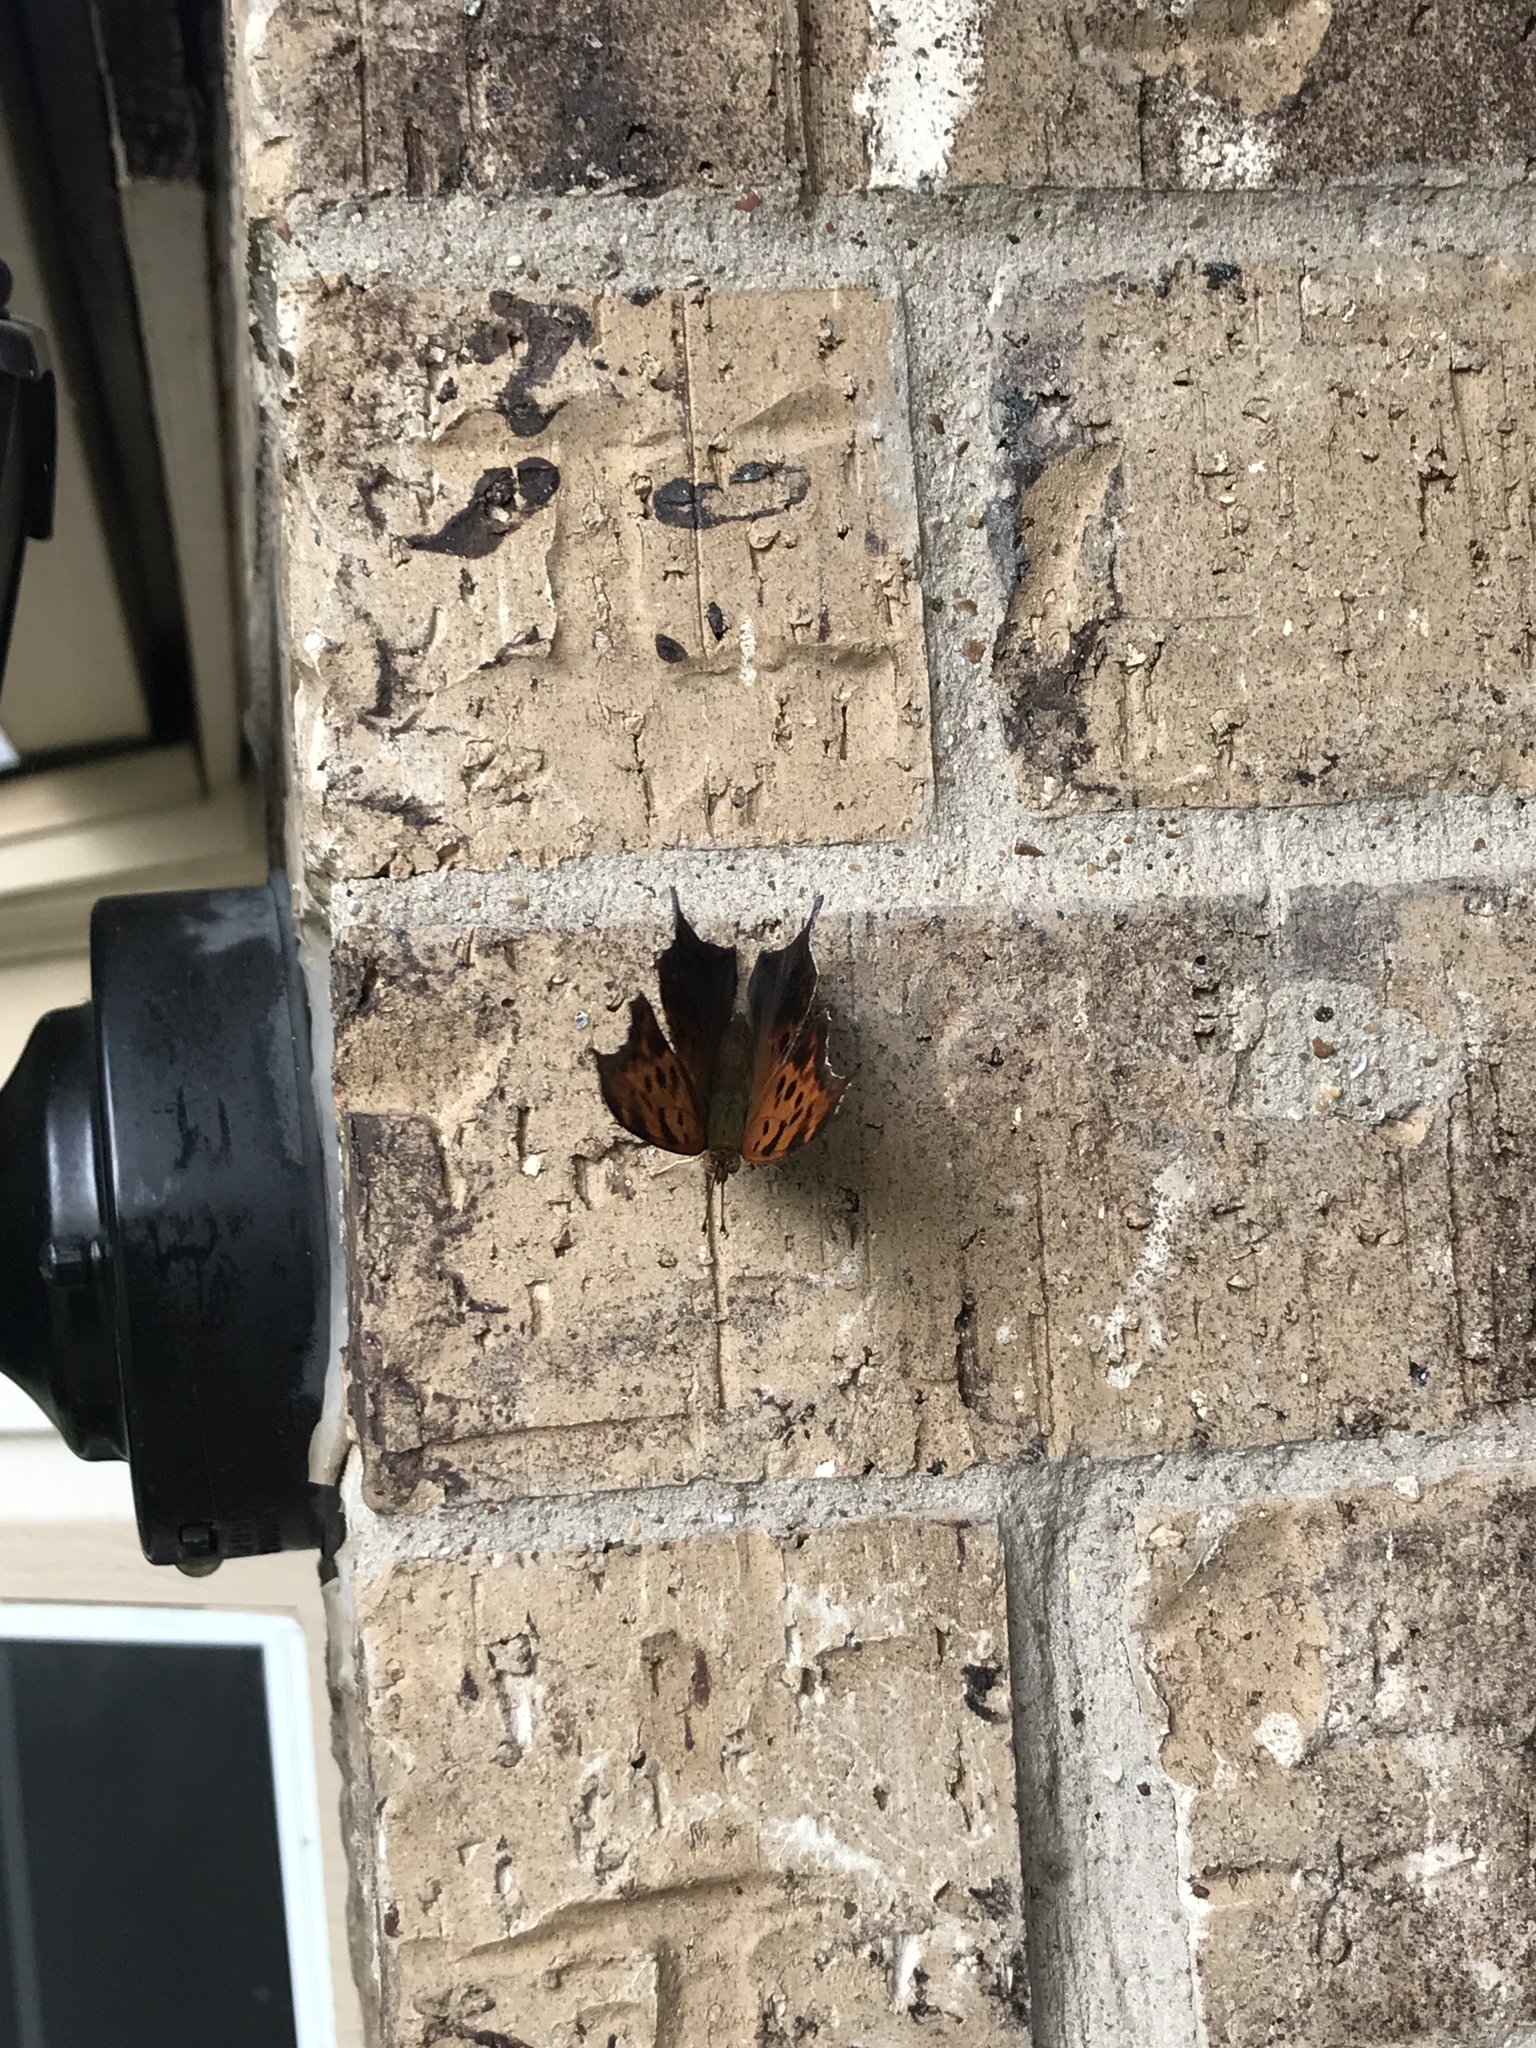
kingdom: Animalia
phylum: Arthropoda
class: Insecta
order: Lepidoptera
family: Nymphalidae
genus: Polygonia
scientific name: Polygonia interrogationis
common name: Question mark
